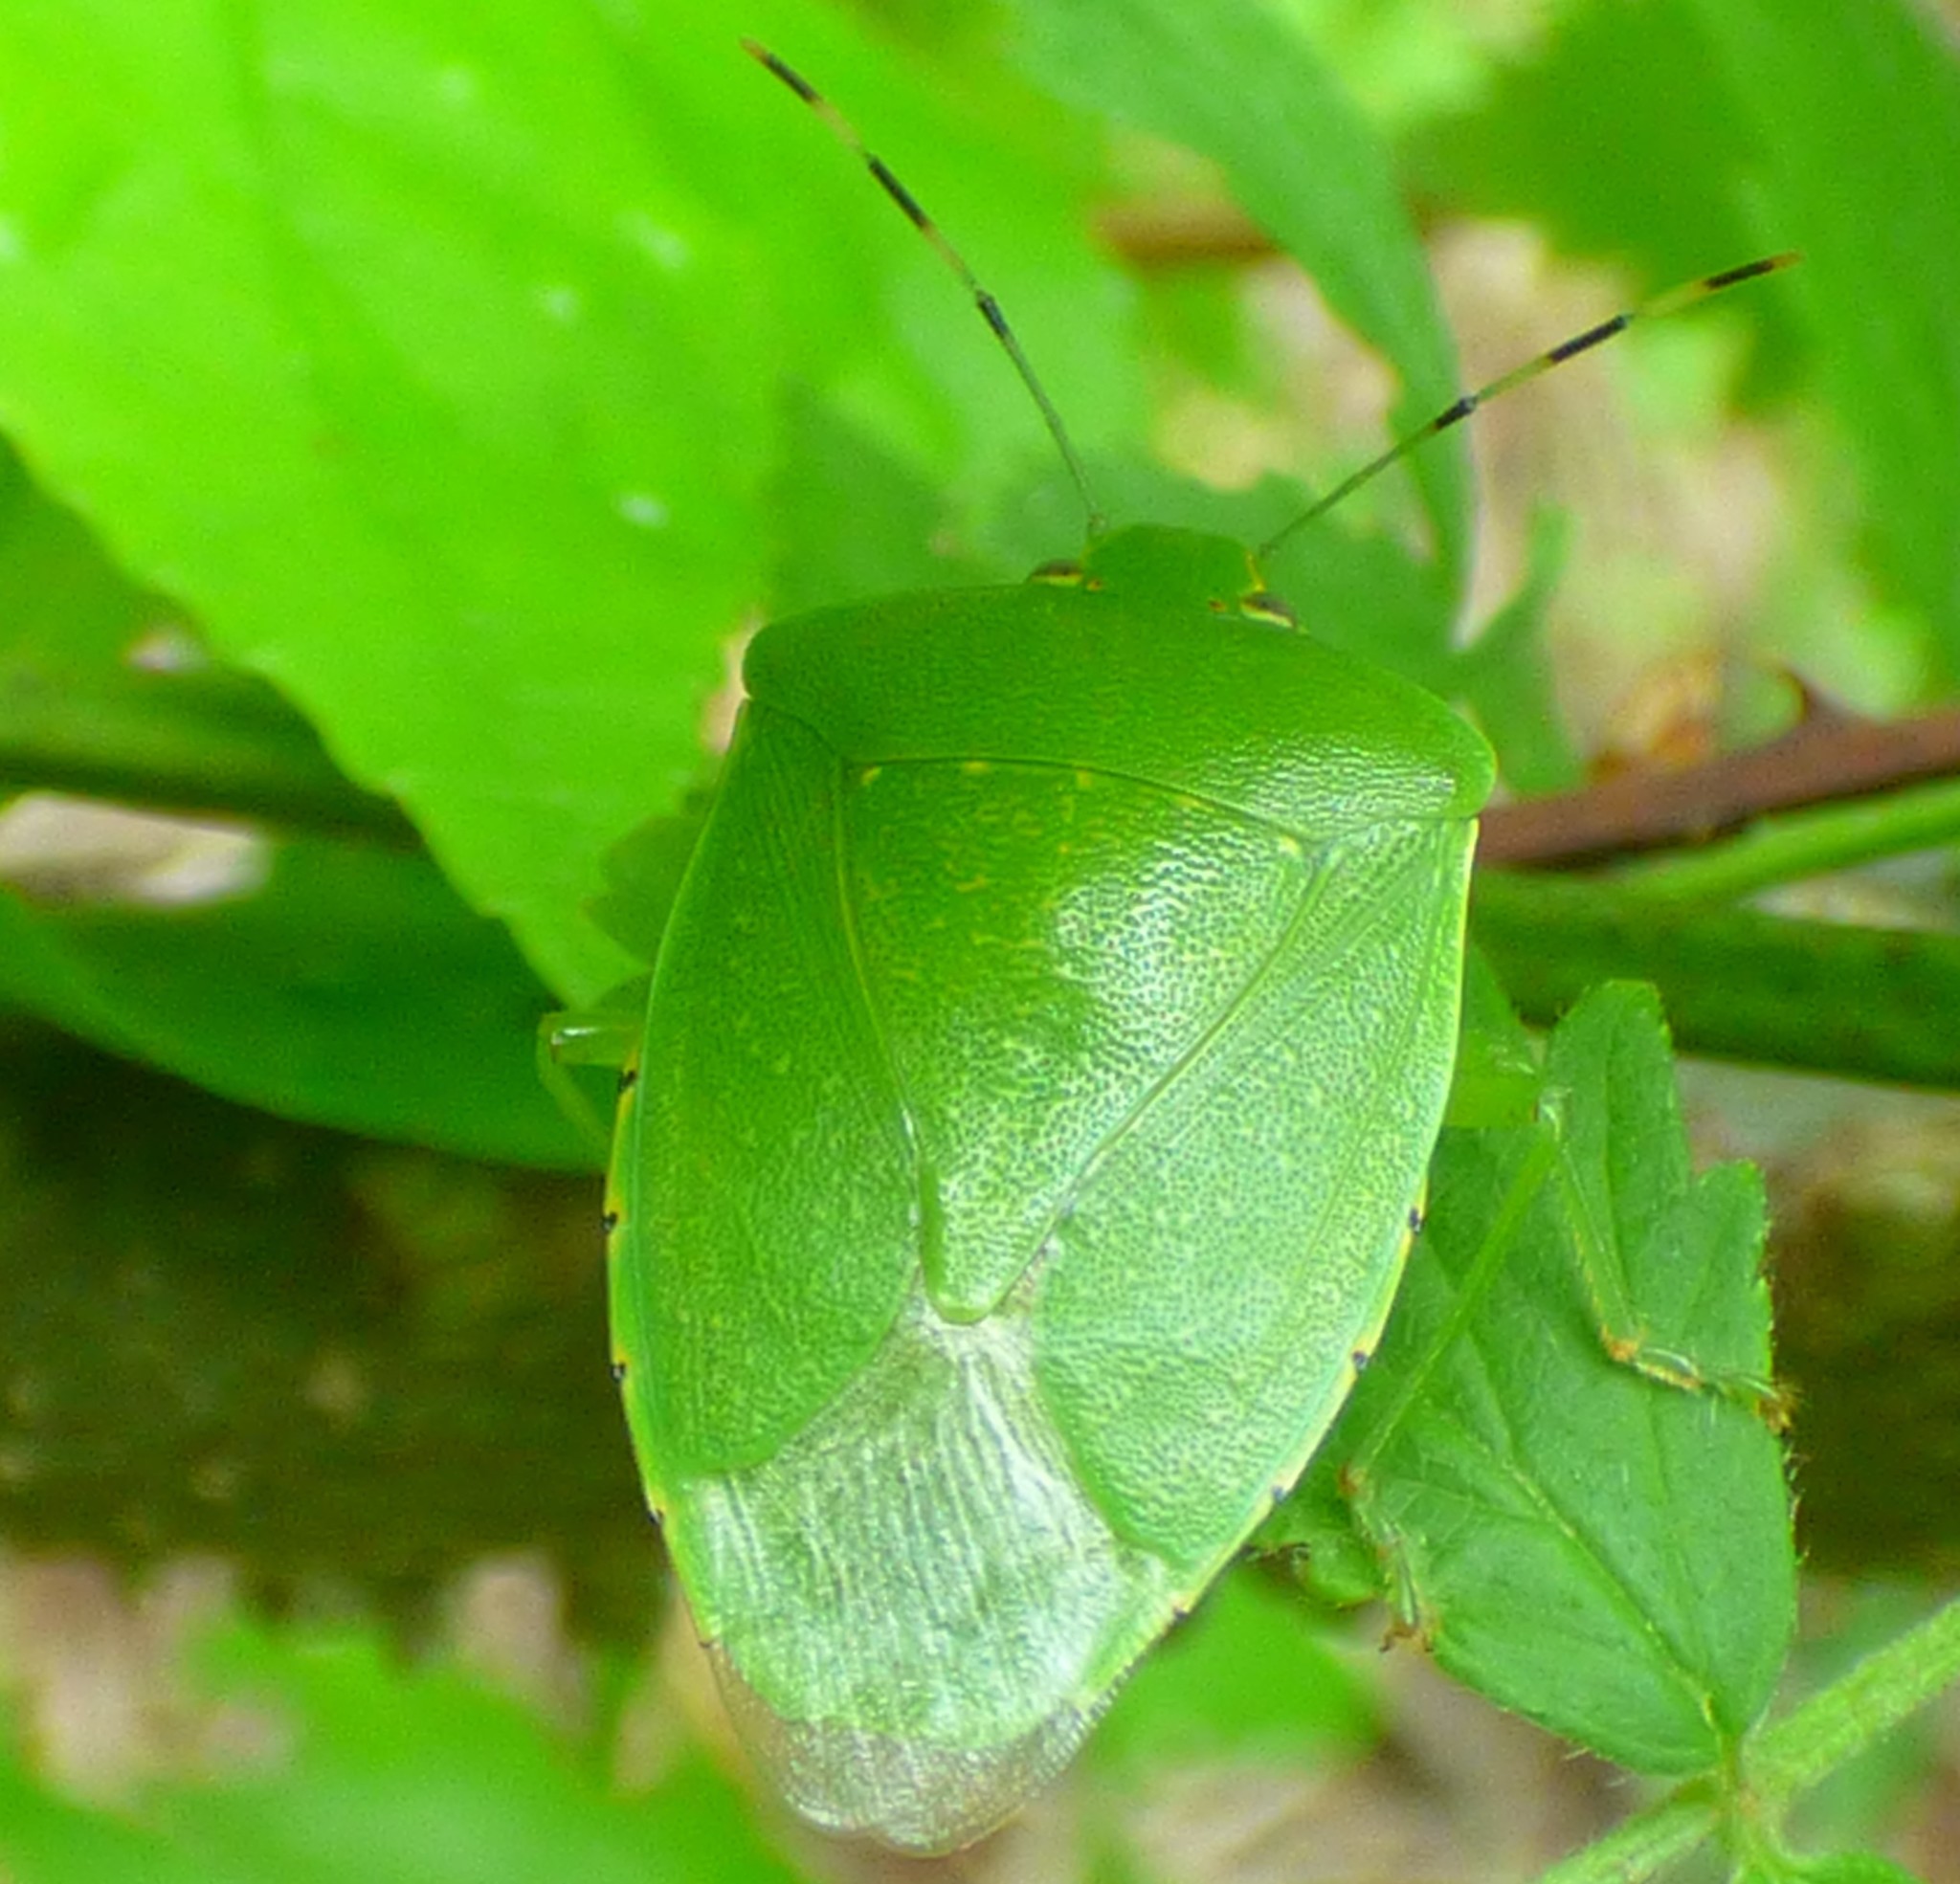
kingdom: Animalia
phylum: Arthropoda
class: Insecta
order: Hemiptera
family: Pentatomidae
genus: Chinavia
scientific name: Chinavia hilaris
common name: Green stink bug
